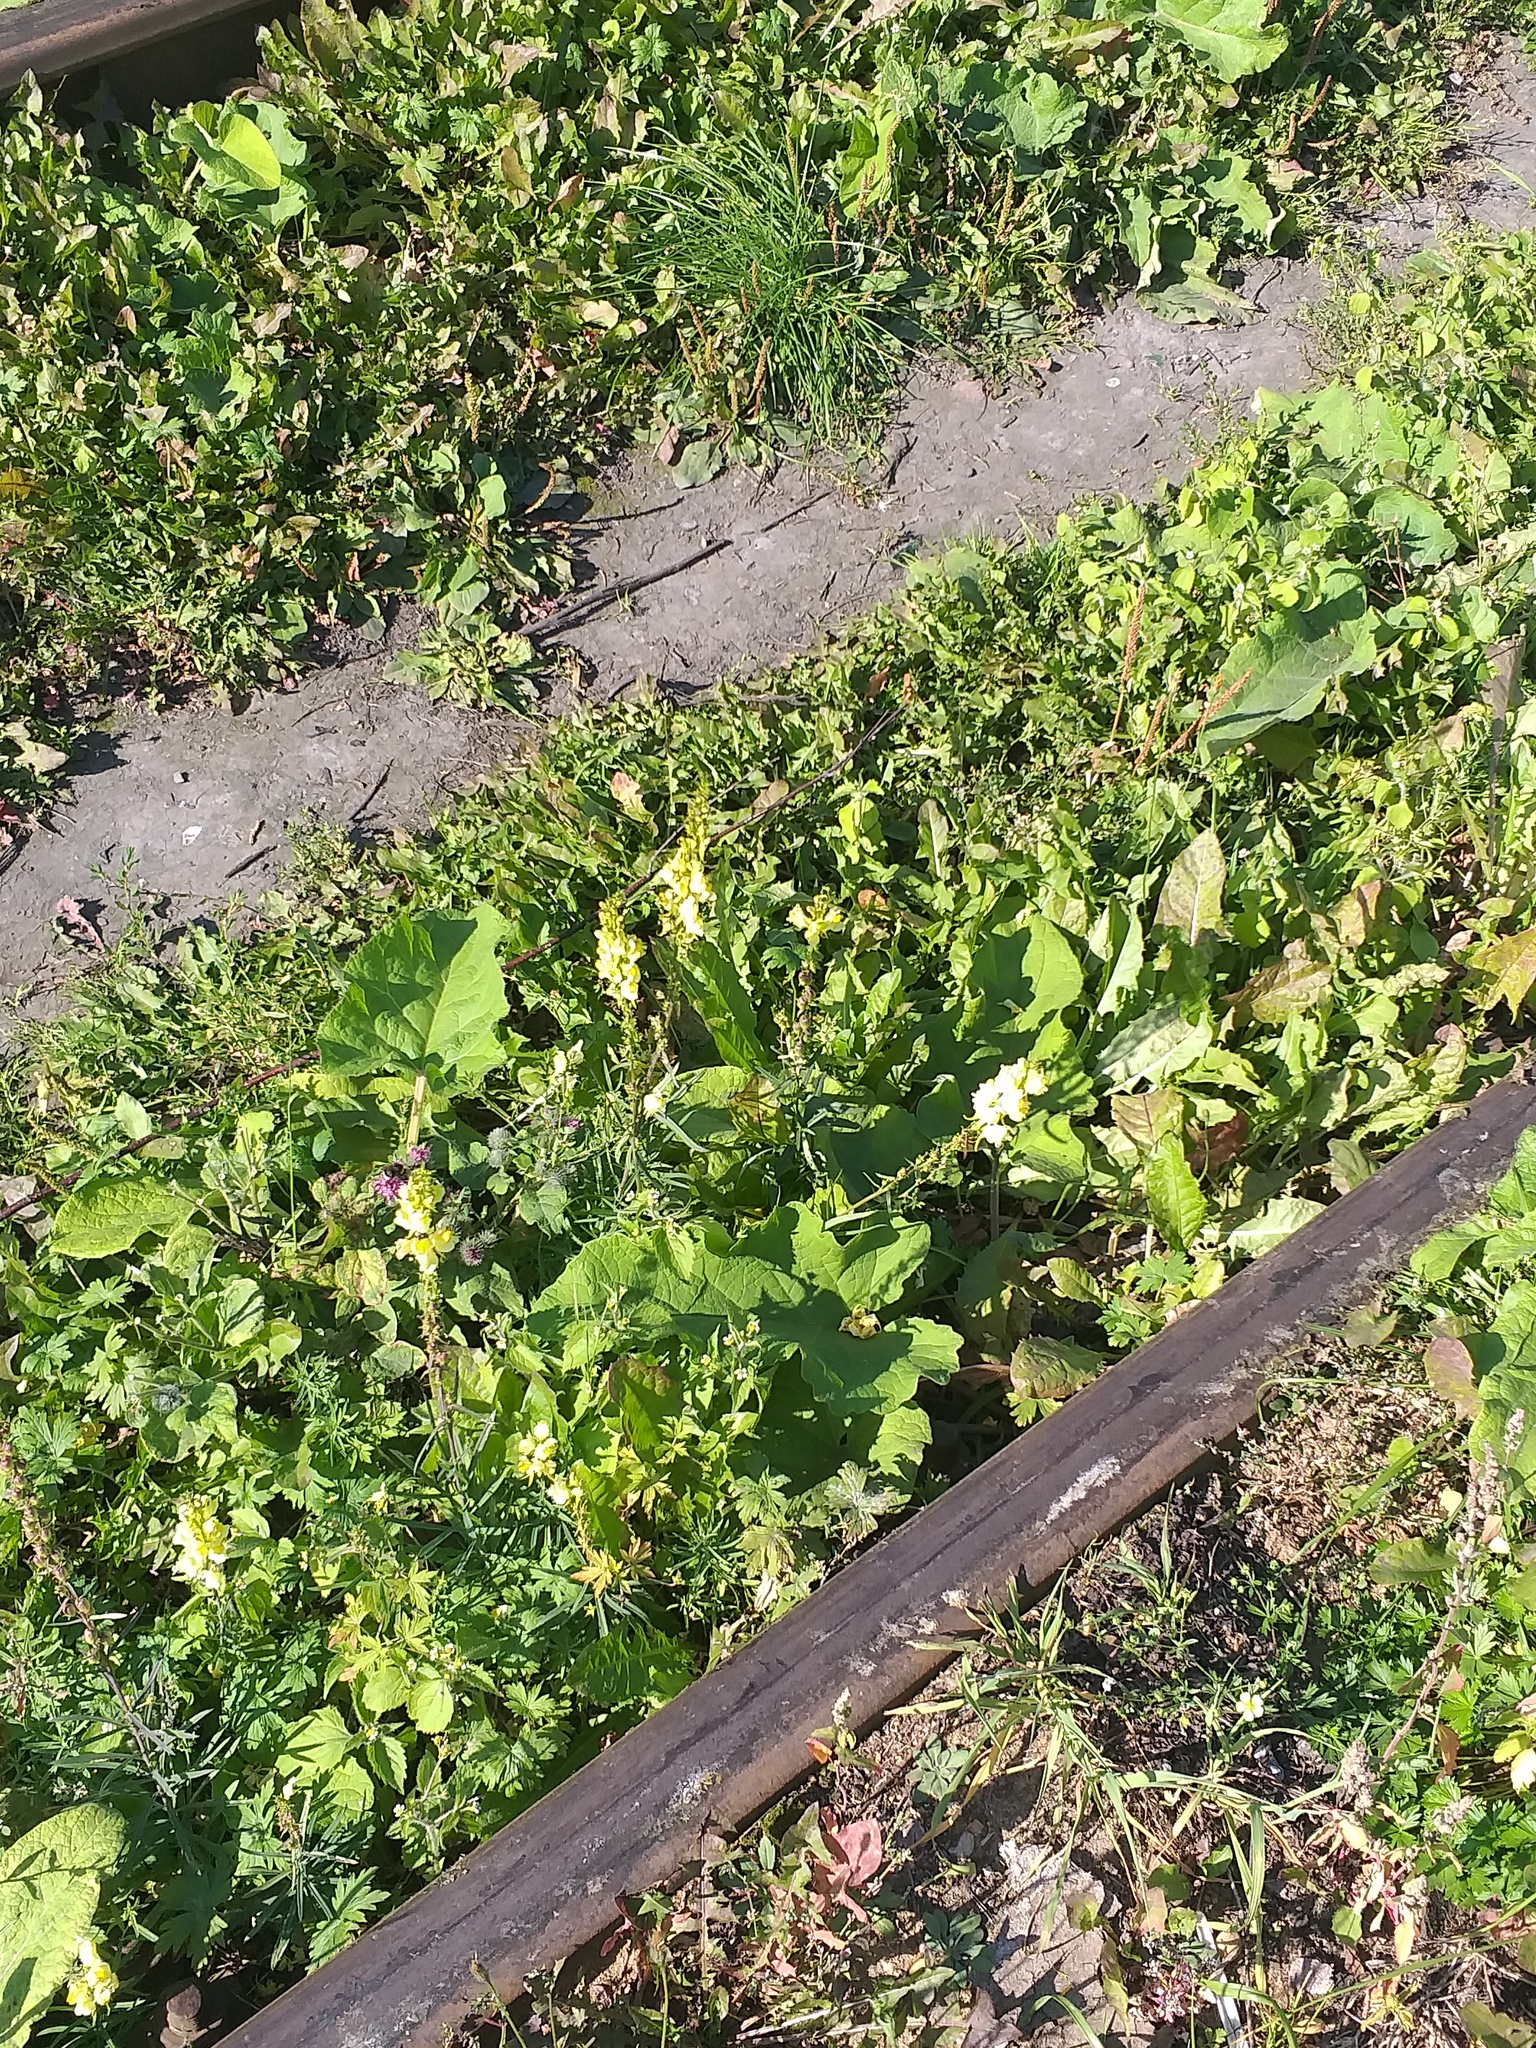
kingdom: Plantae
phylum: Tracheophyta
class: Magnoliopsida
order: Lamiales
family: Plantaginaceae
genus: Linaria
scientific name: Linaria vulgaris
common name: Butter and eggs
